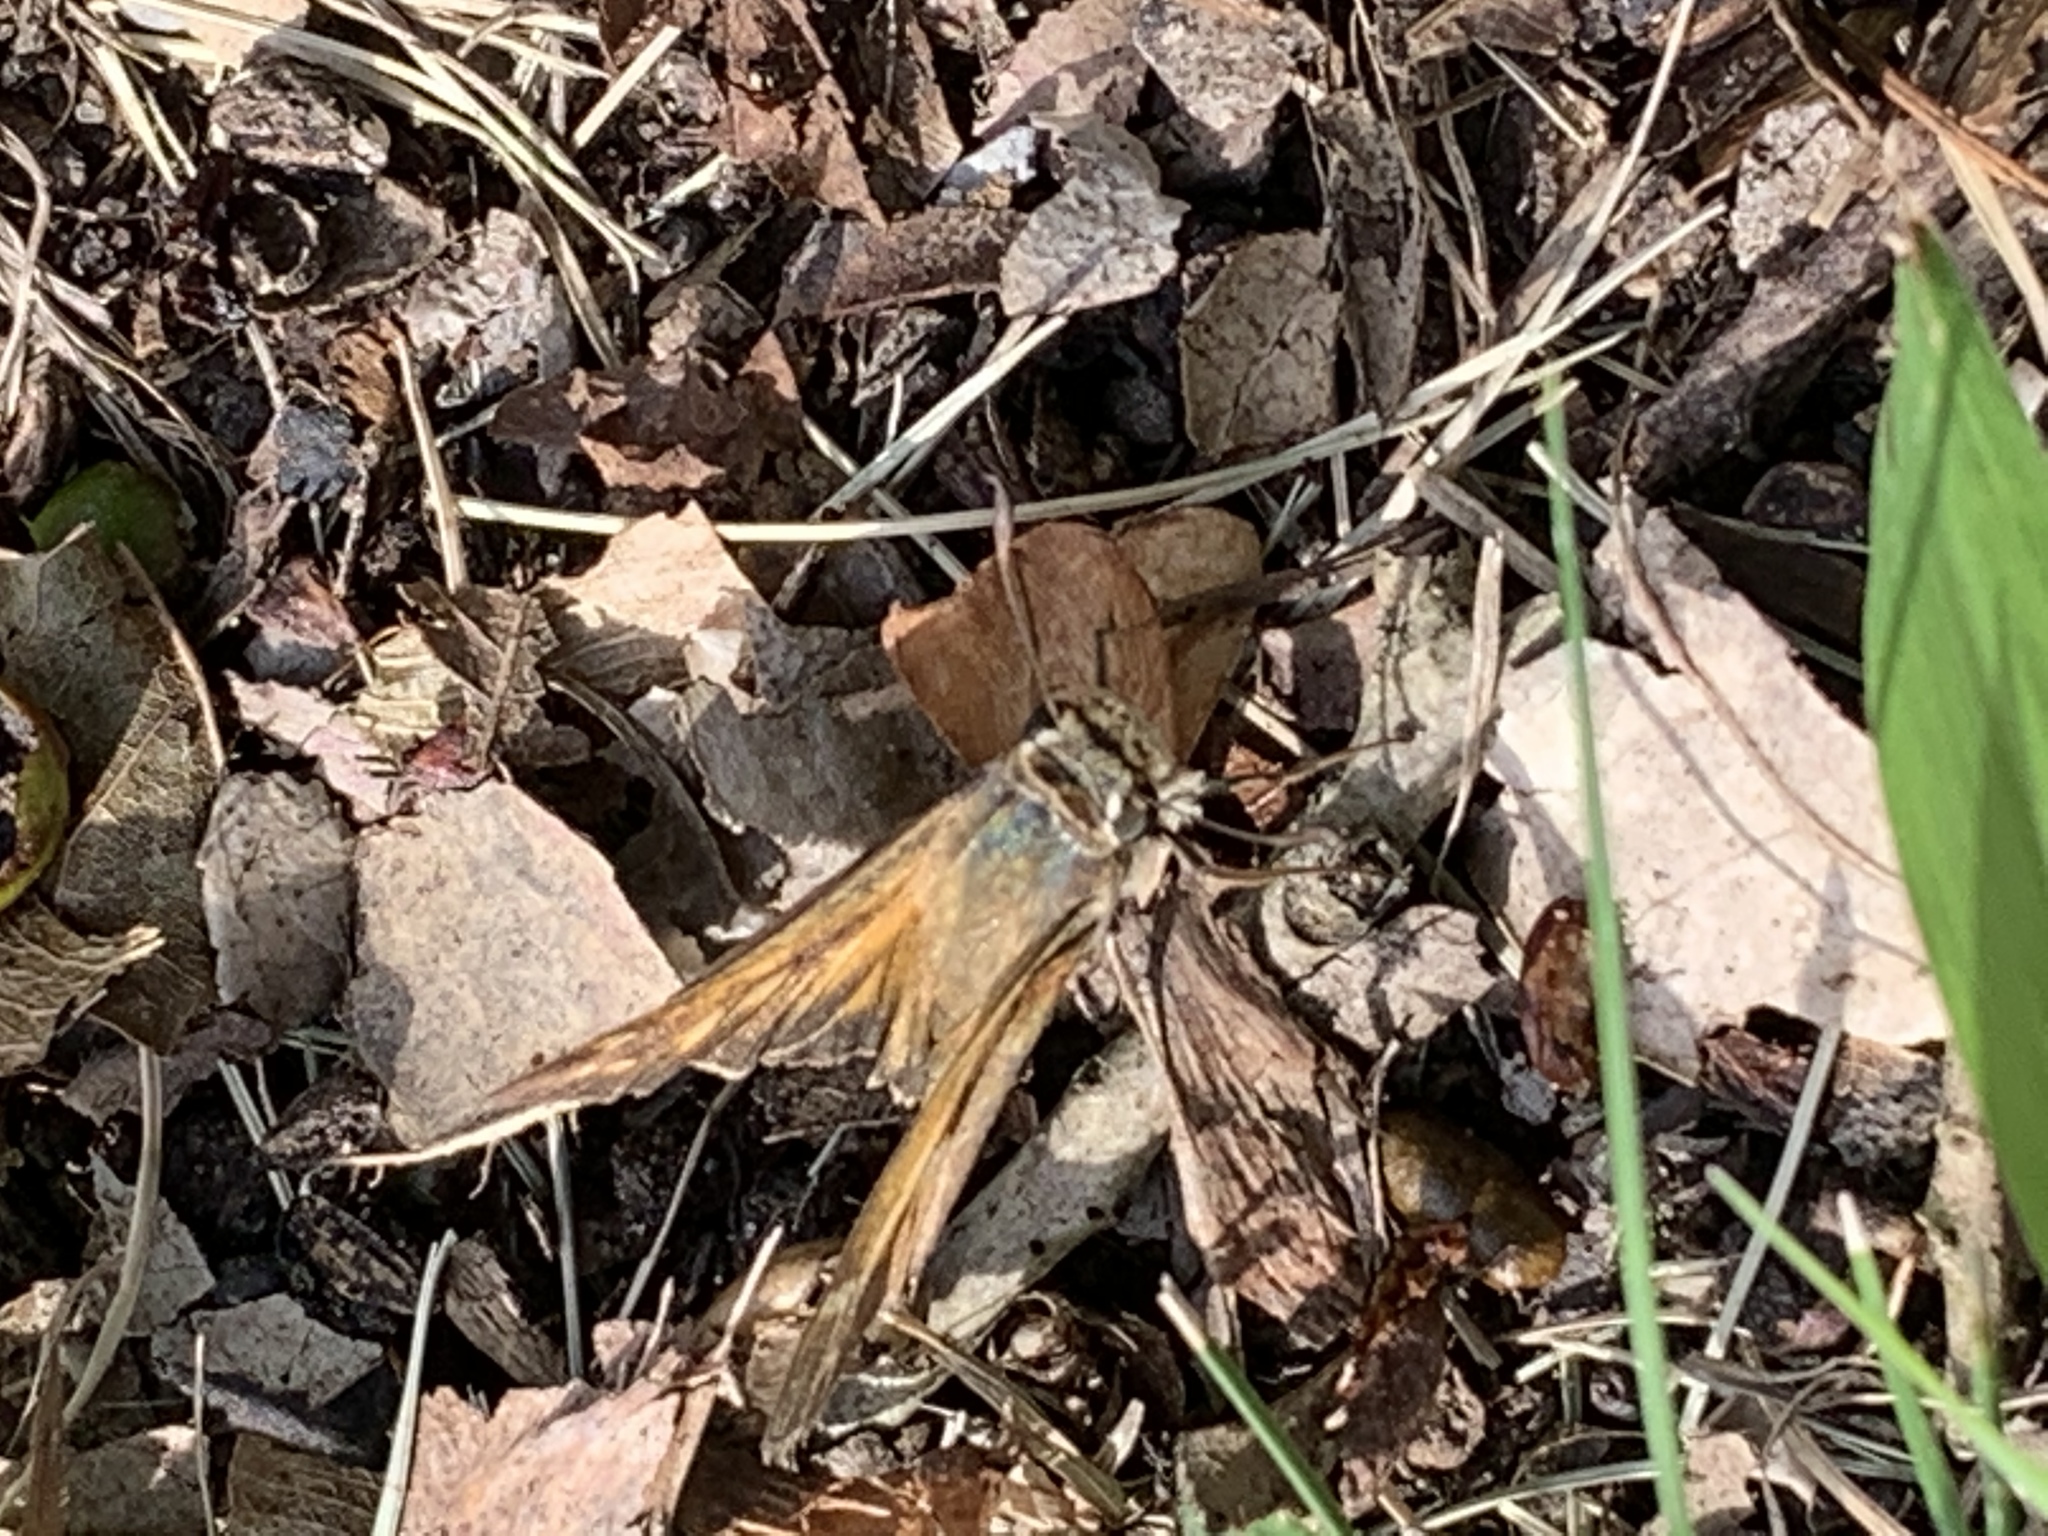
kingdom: Animalia
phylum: Arthropoda
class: Insecta
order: Lepidoptera
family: Hesperiidae
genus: Atalopedes
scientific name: Atalopedes
